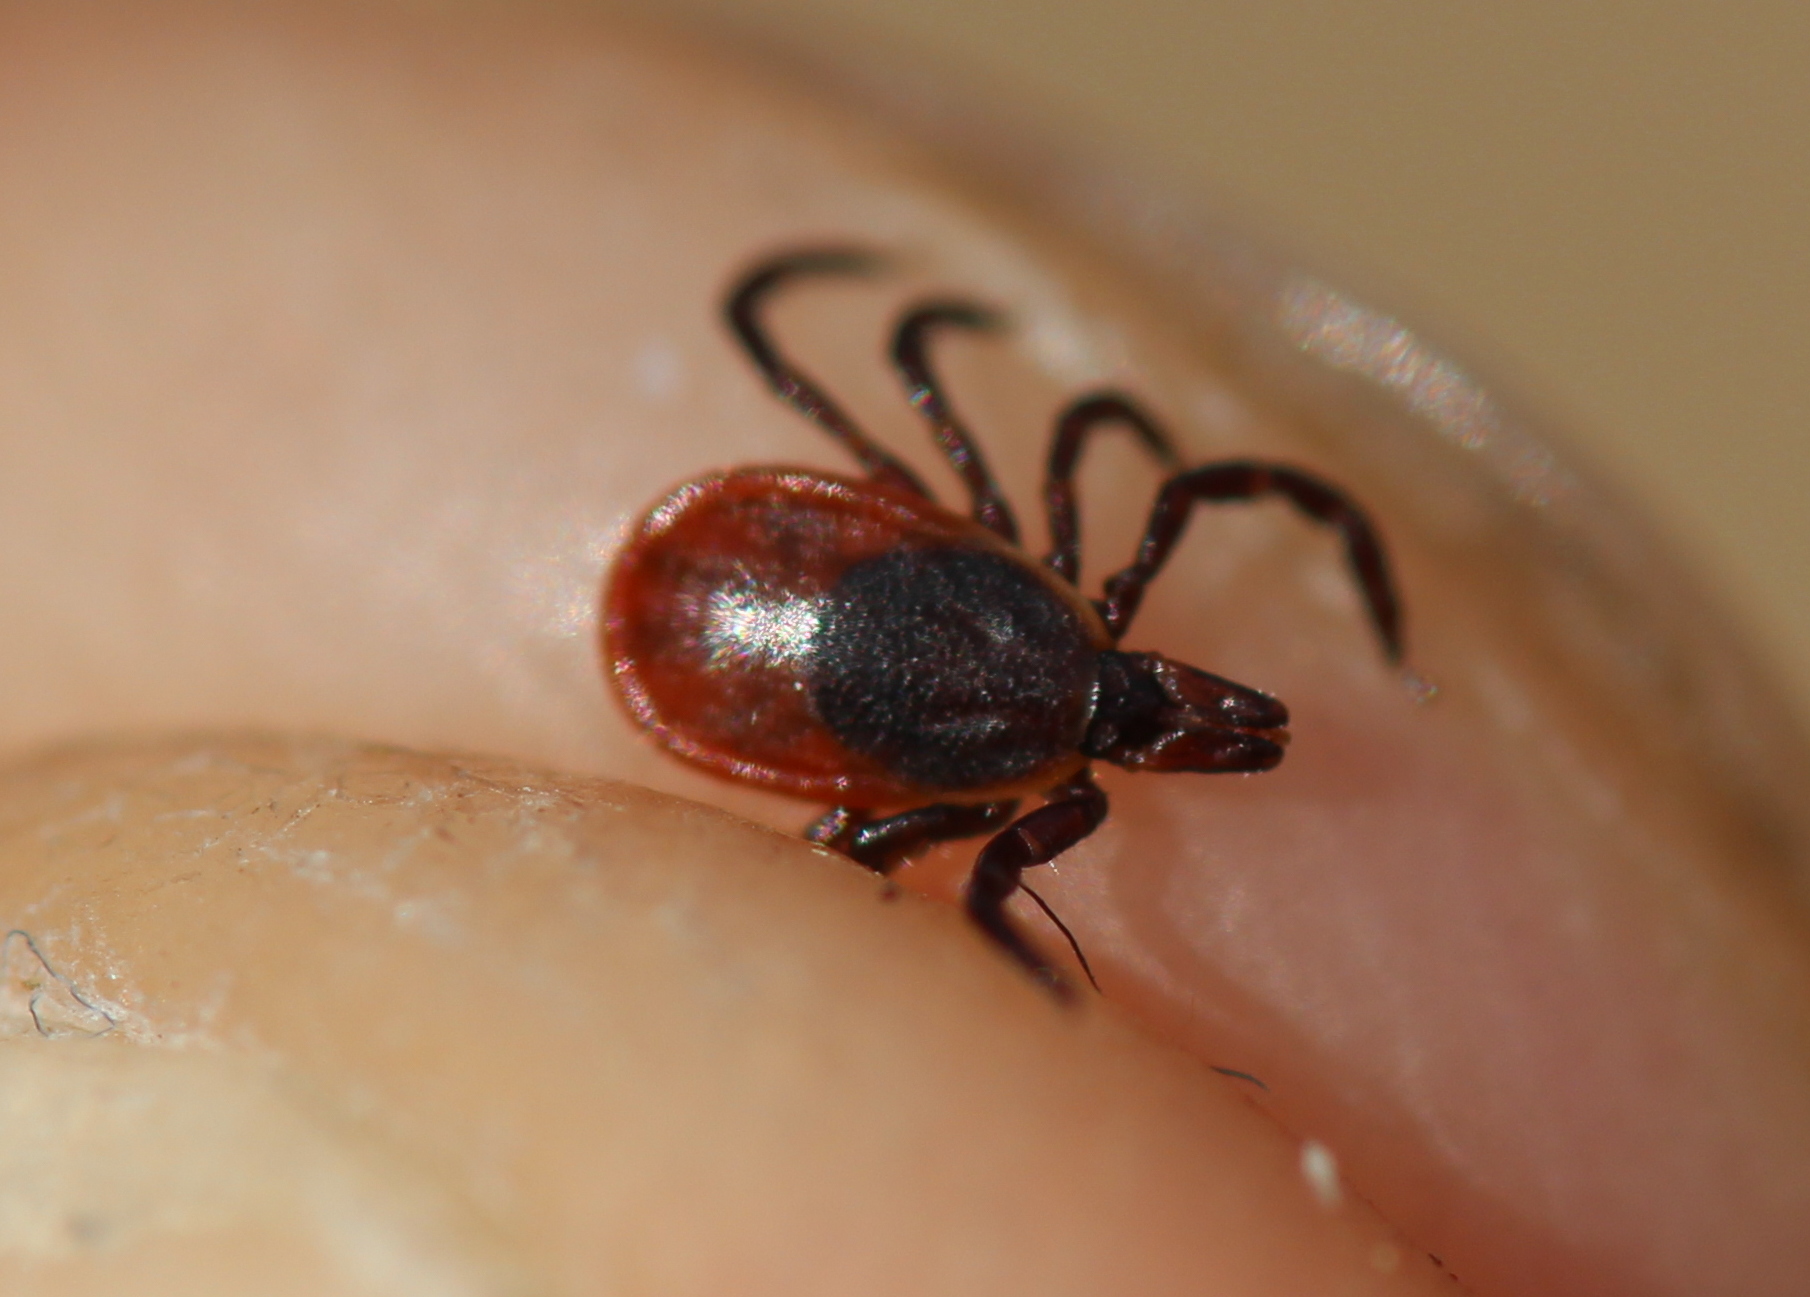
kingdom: Animalia
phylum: Arthropoda
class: Arachnida
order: Ixodida
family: Ixodidae
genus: Ixodes
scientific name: Ixodes scapularis
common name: Black legged tick
